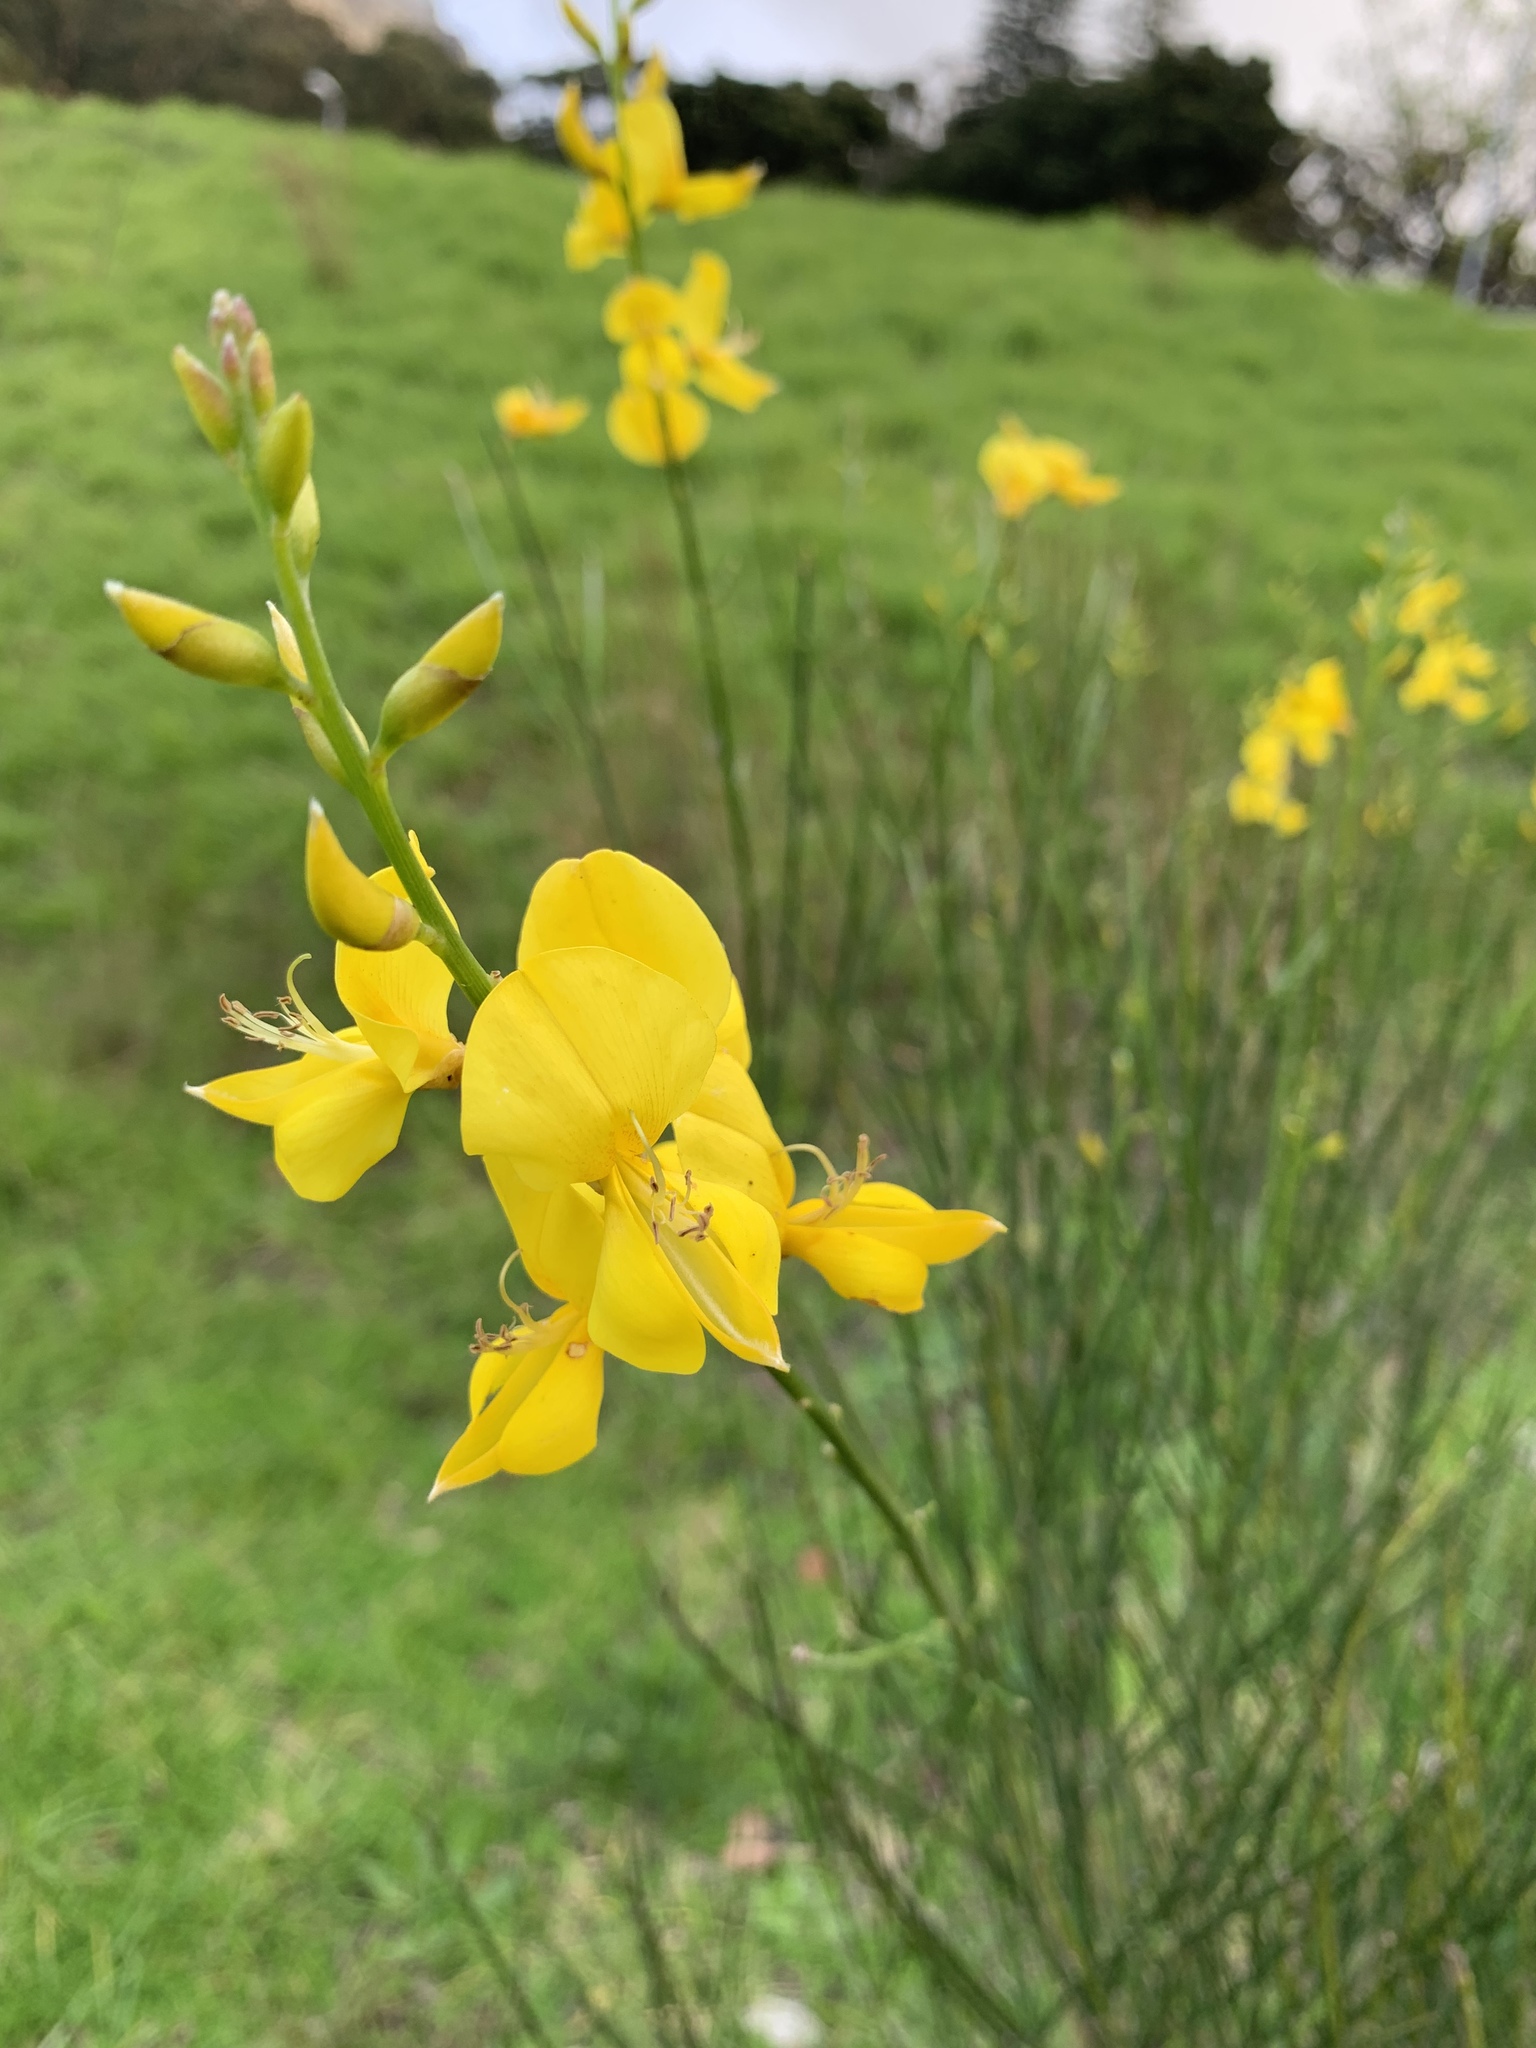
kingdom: Plantae
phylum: Tracheophyta
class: Magnoliopsida
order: Fabales
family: Fabaceae
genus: Spartium
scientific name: Spartium junceum
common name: Spanish broom
